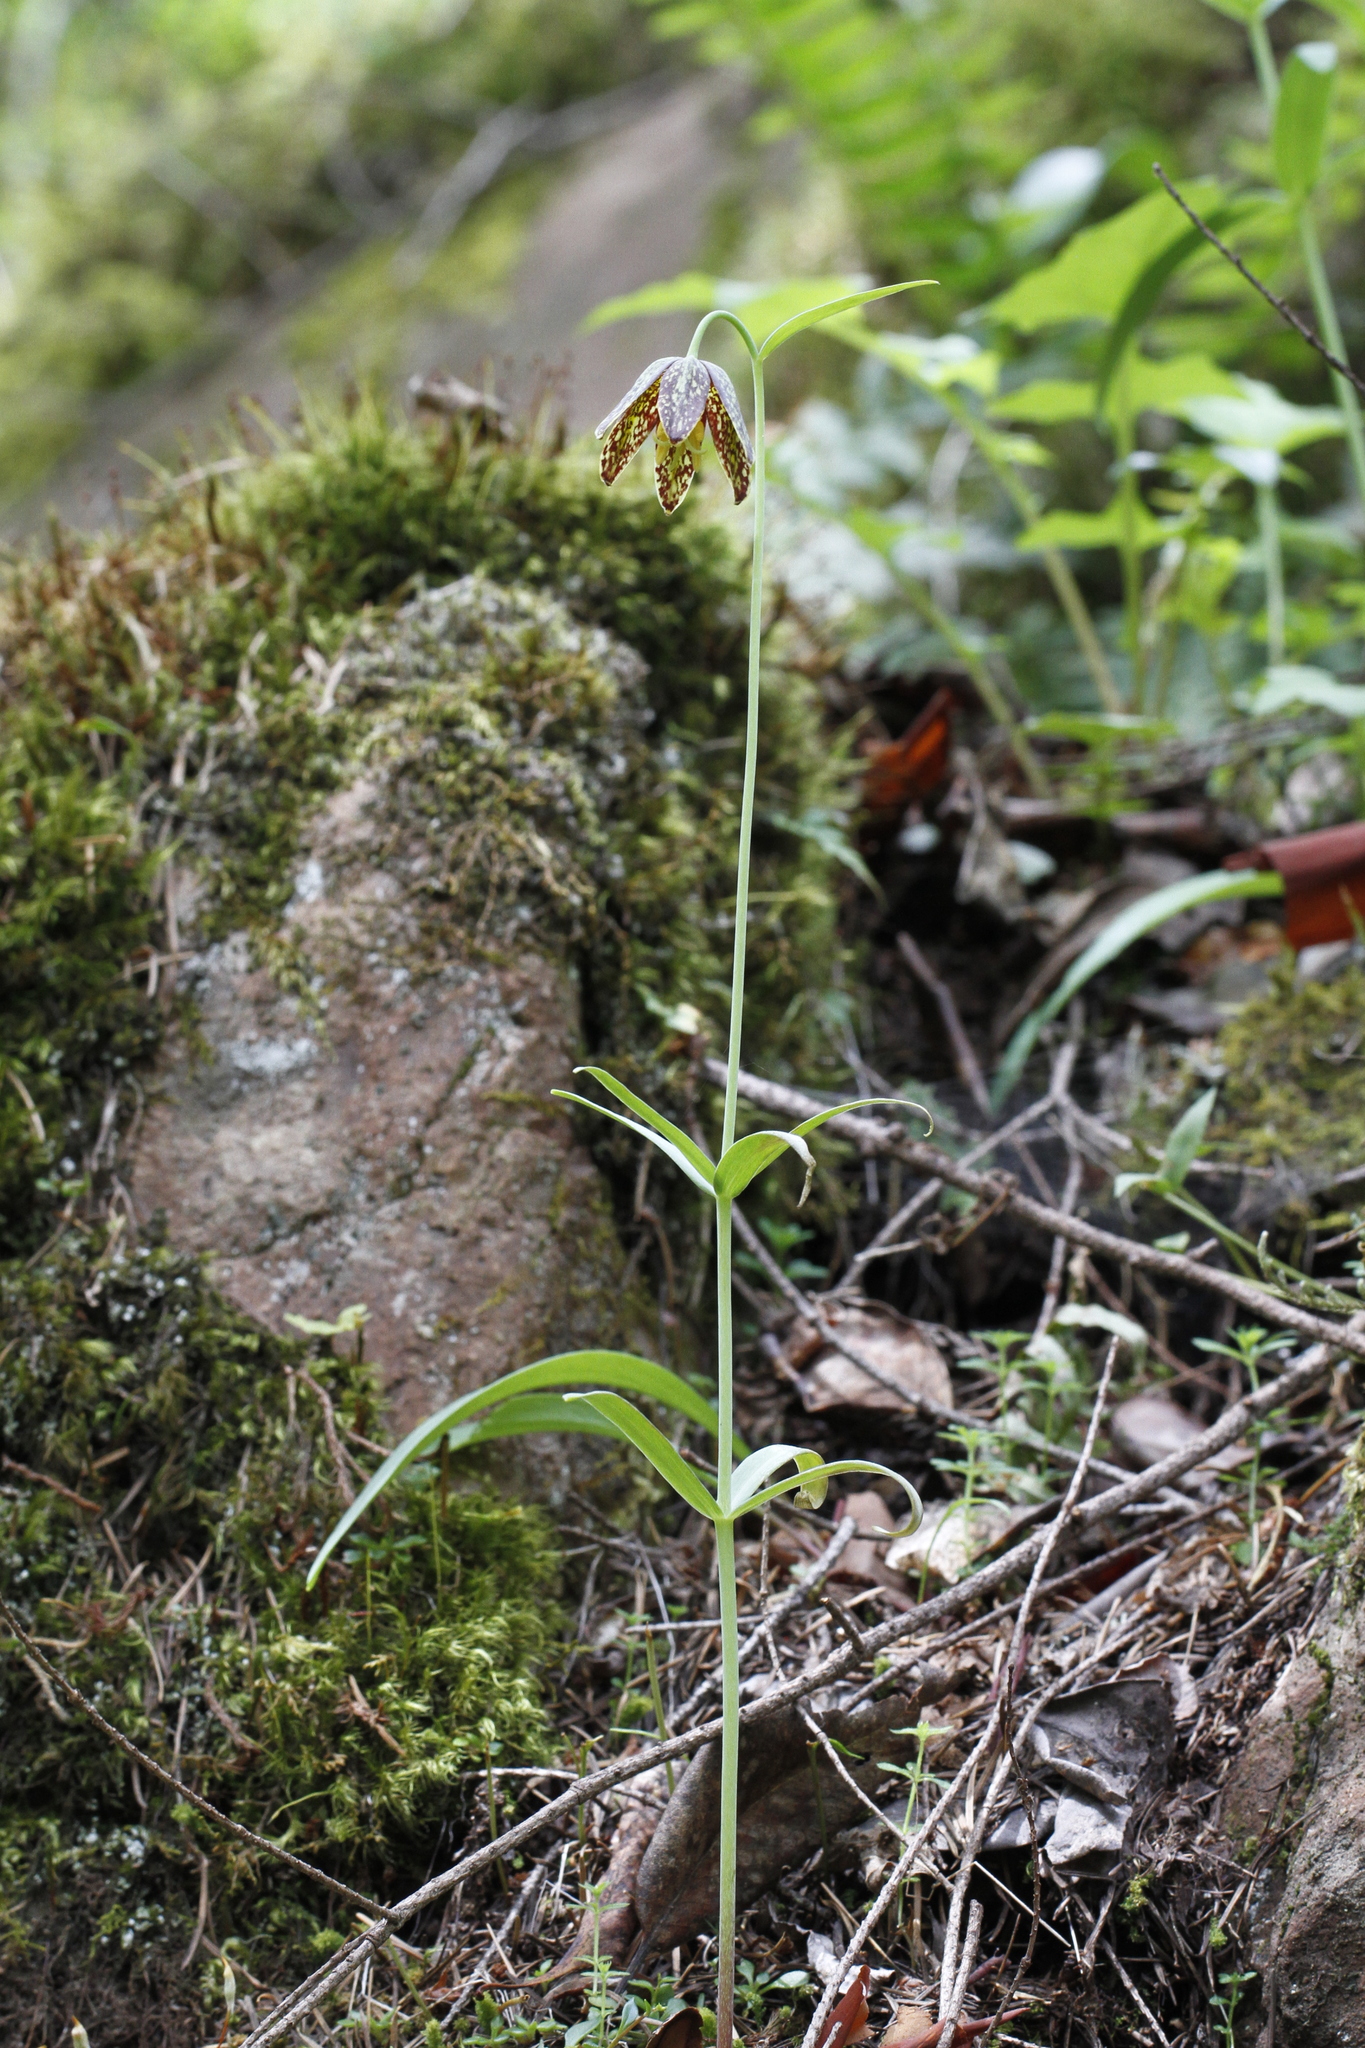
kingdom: Plantae
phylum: Tracheophyta
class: Liliopsida
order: Liliales
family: Liliaceae
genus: Fritillaria
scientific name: Fritillaria affinis
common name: Ojai fritillary
